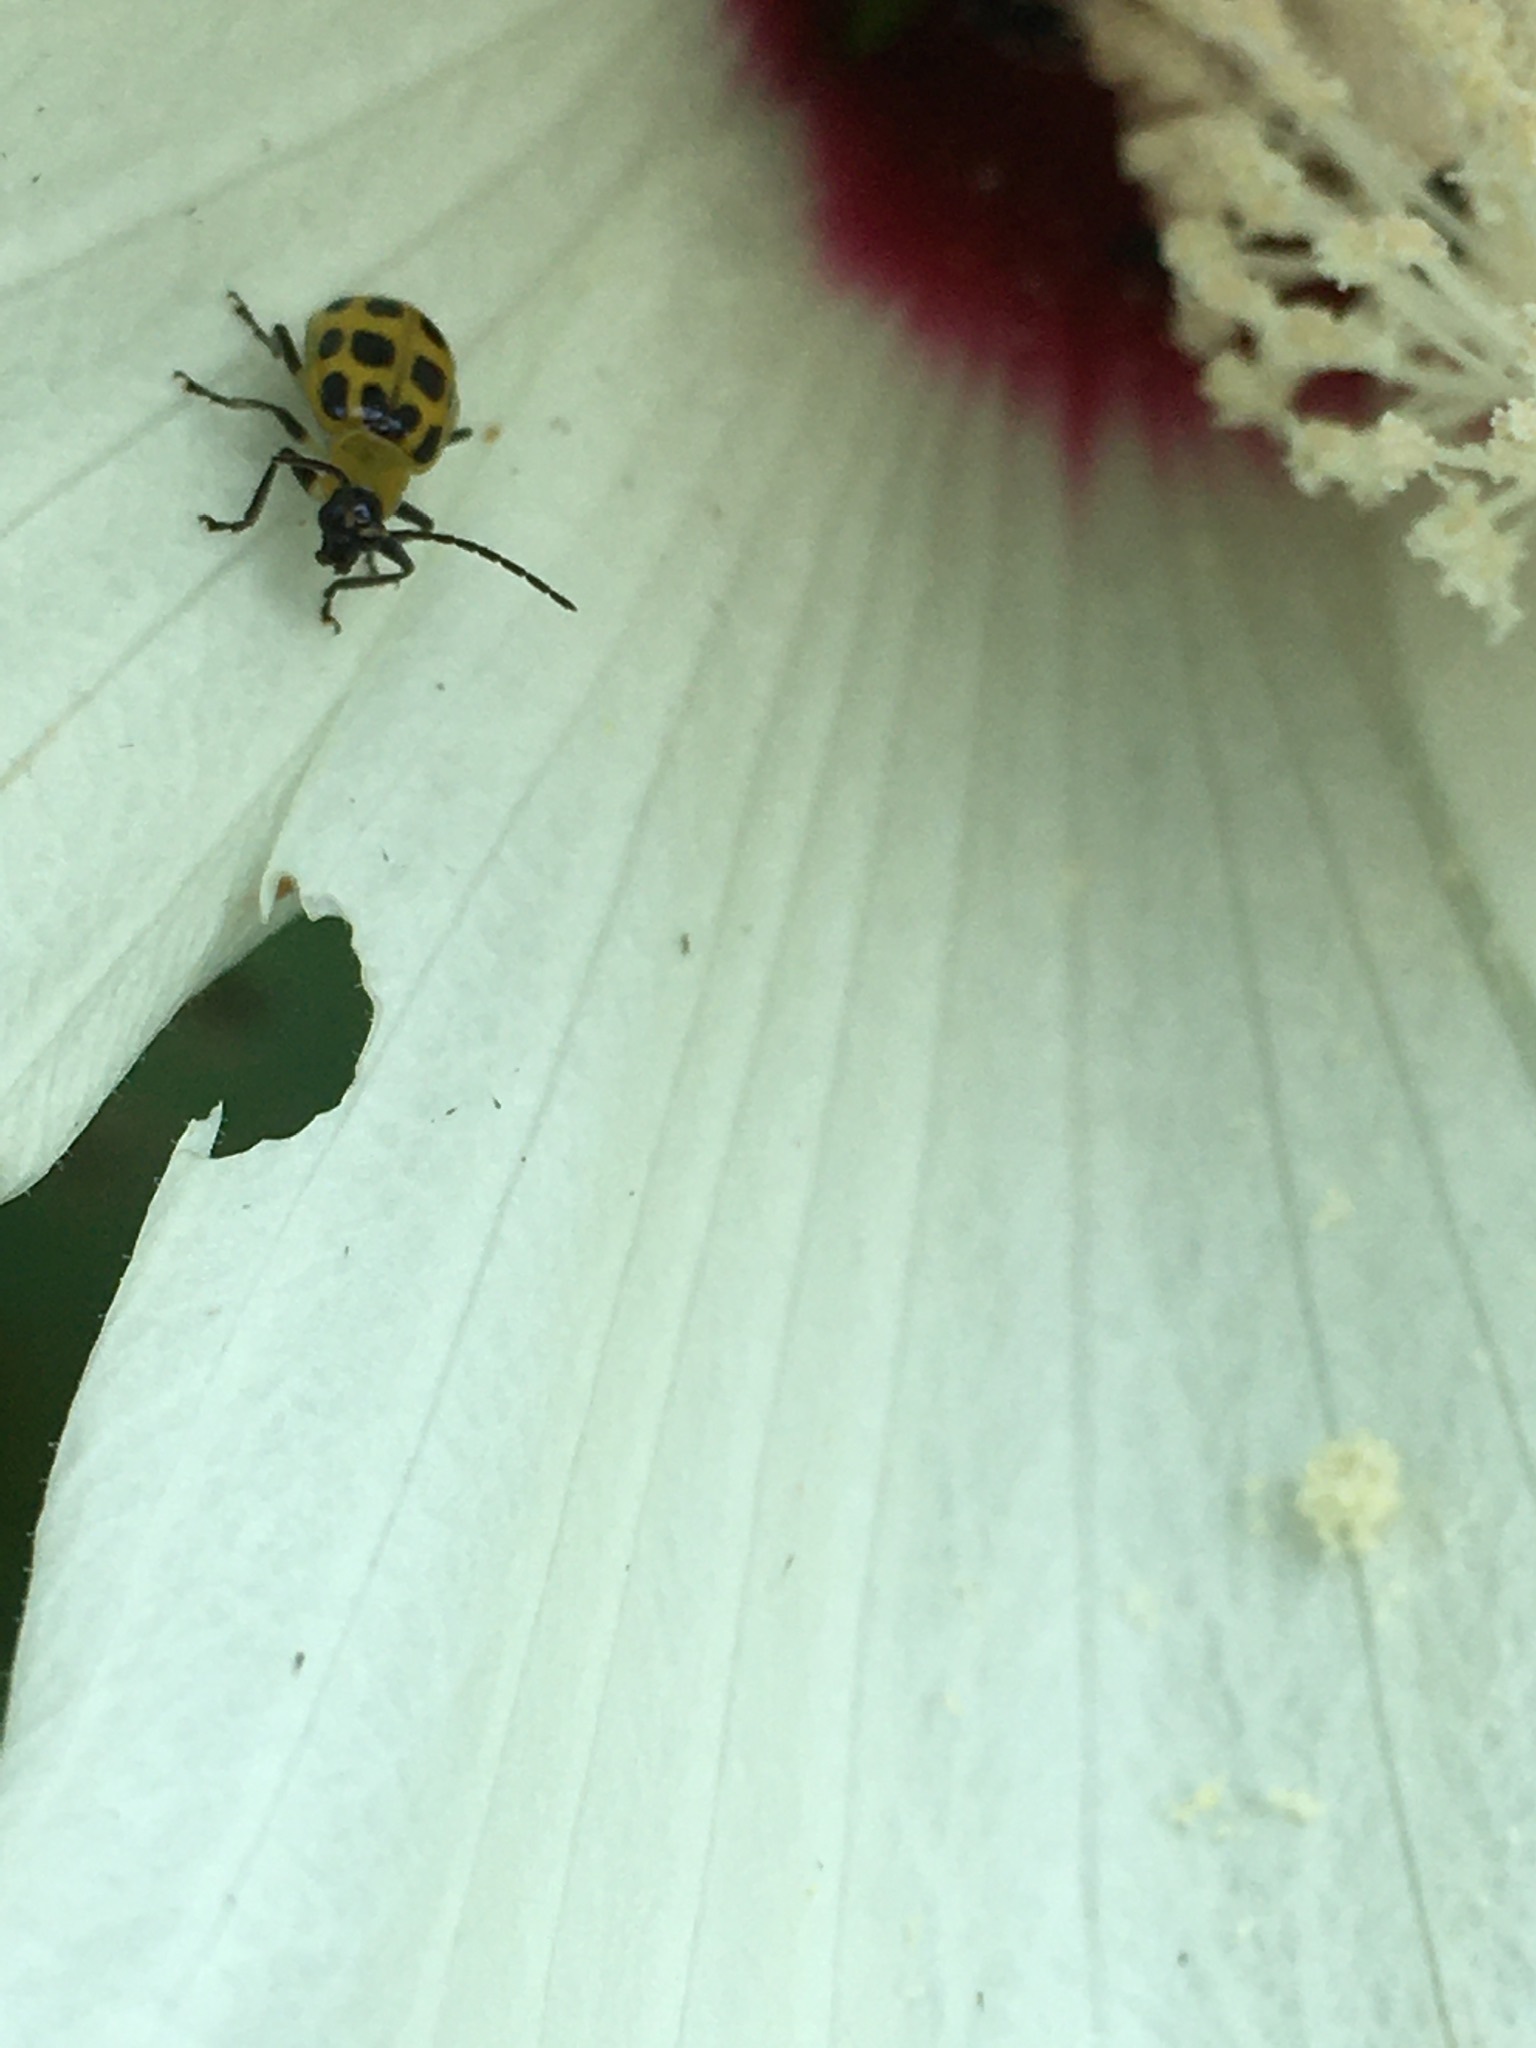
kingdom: Animalia
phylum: Arthropoda
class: Insecta
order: Coleoptera
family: Chrysomelidae
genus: Diabrotica
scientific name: Diabrotica undecimpunctata
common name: Spotted cucumber beetle
